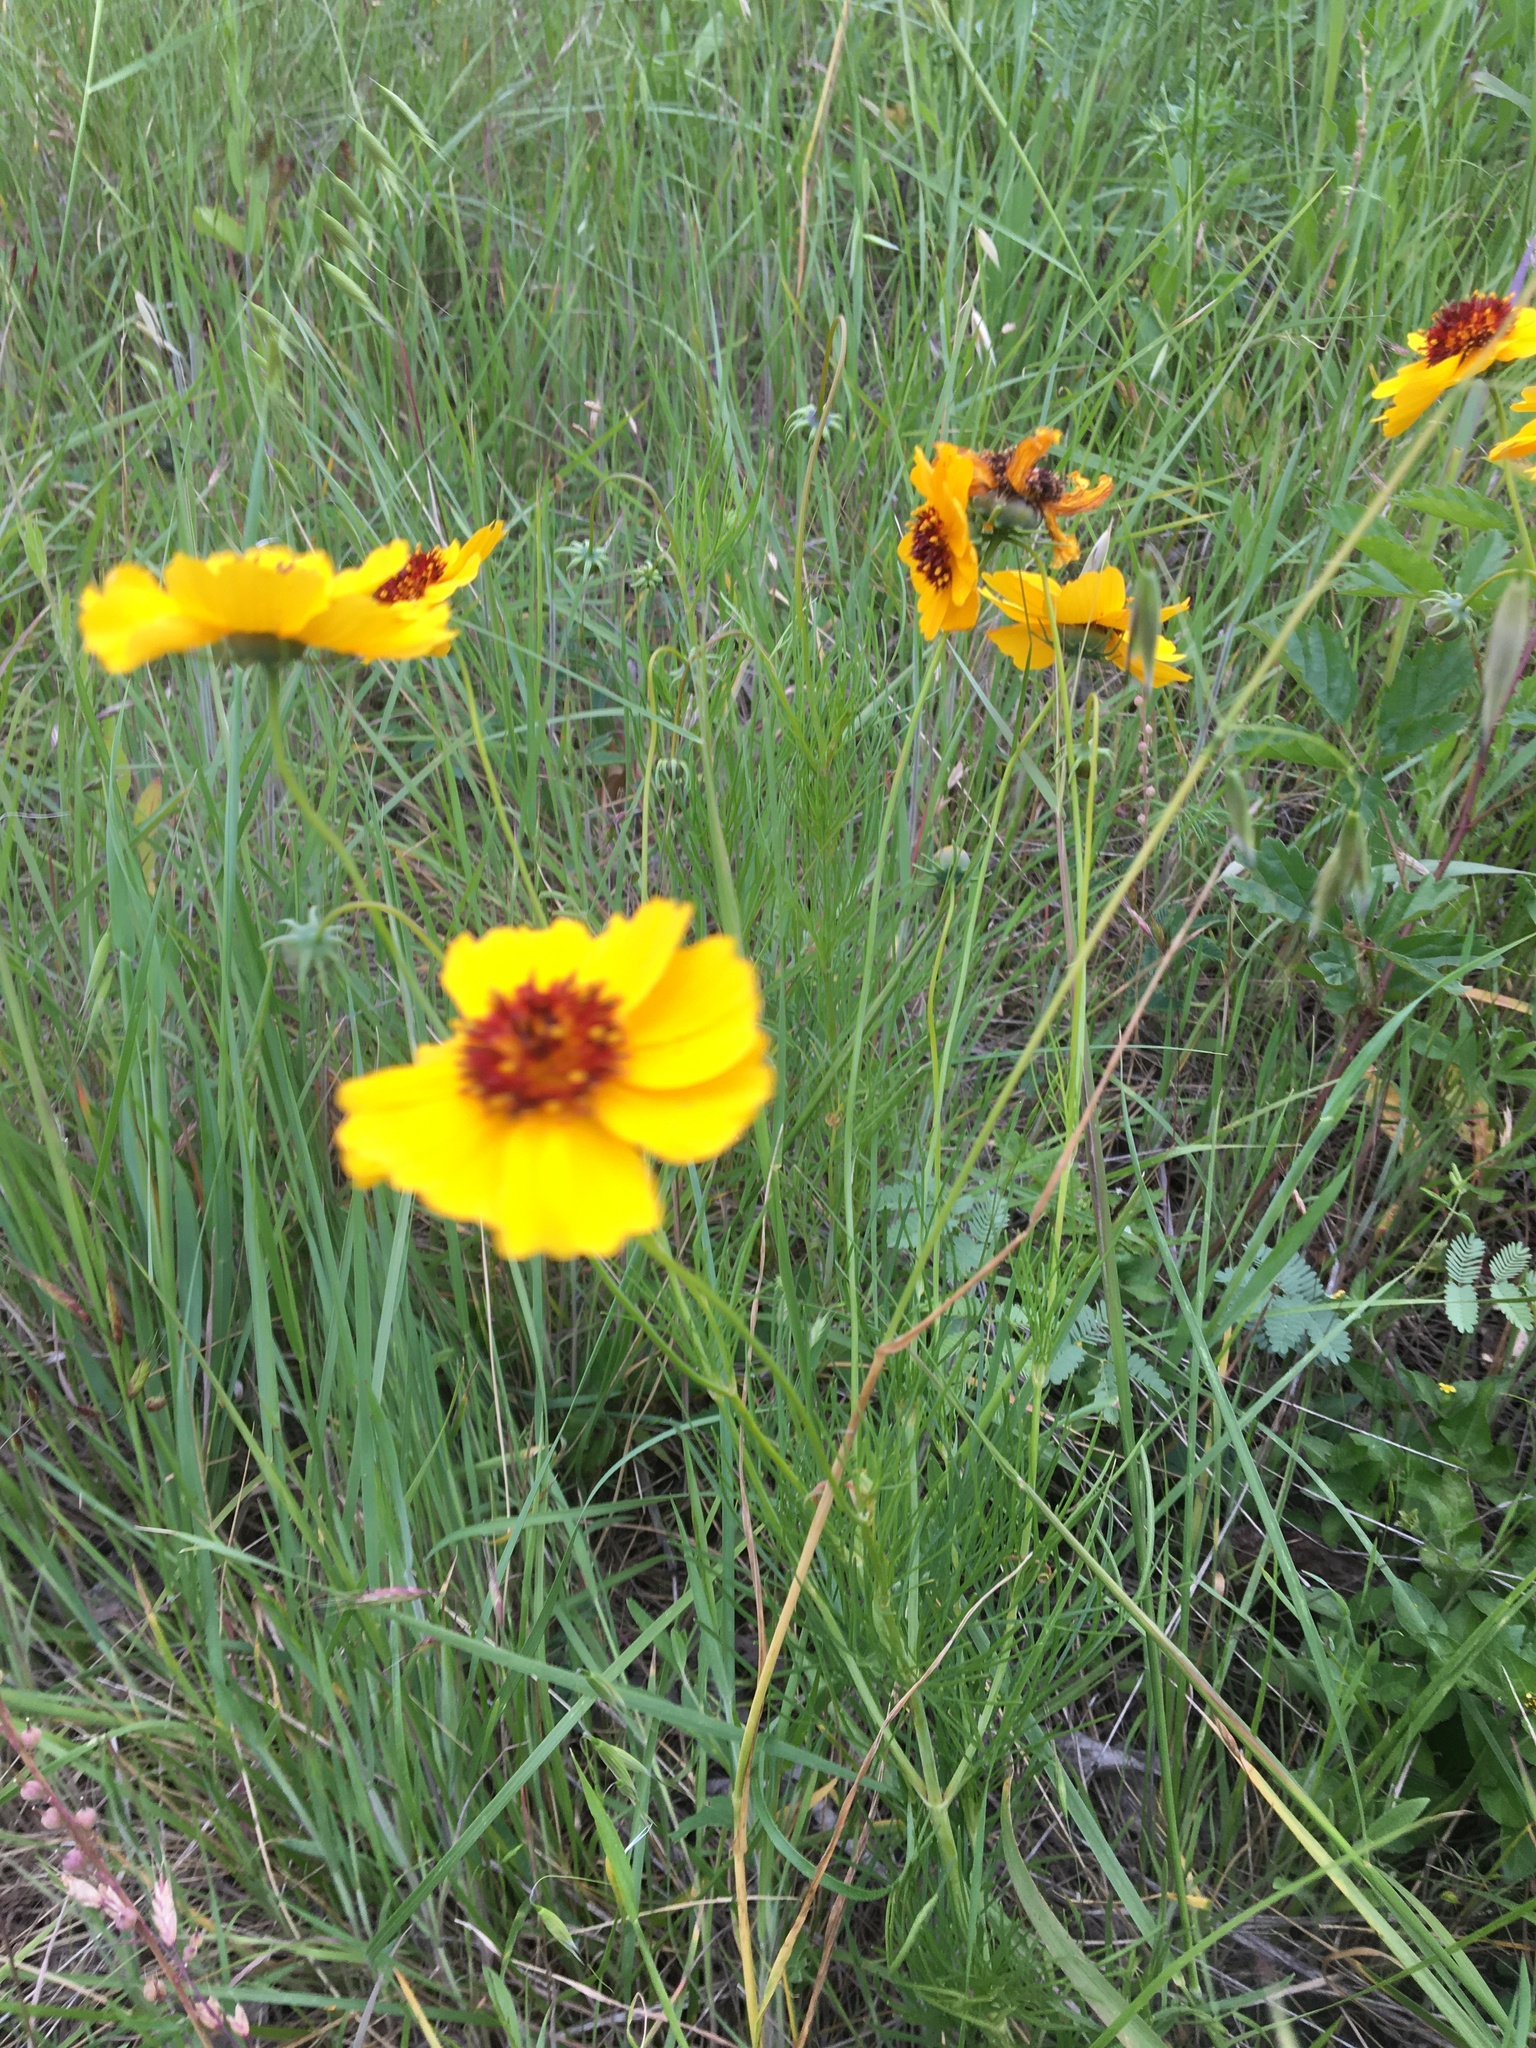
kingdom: Plantae
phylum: Tracheophyta
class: Magnoliopsida
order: Asterales
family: Asteraceae
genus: Thelesperma
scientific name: Thelesperma filifolium
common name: Stiff greenthread
